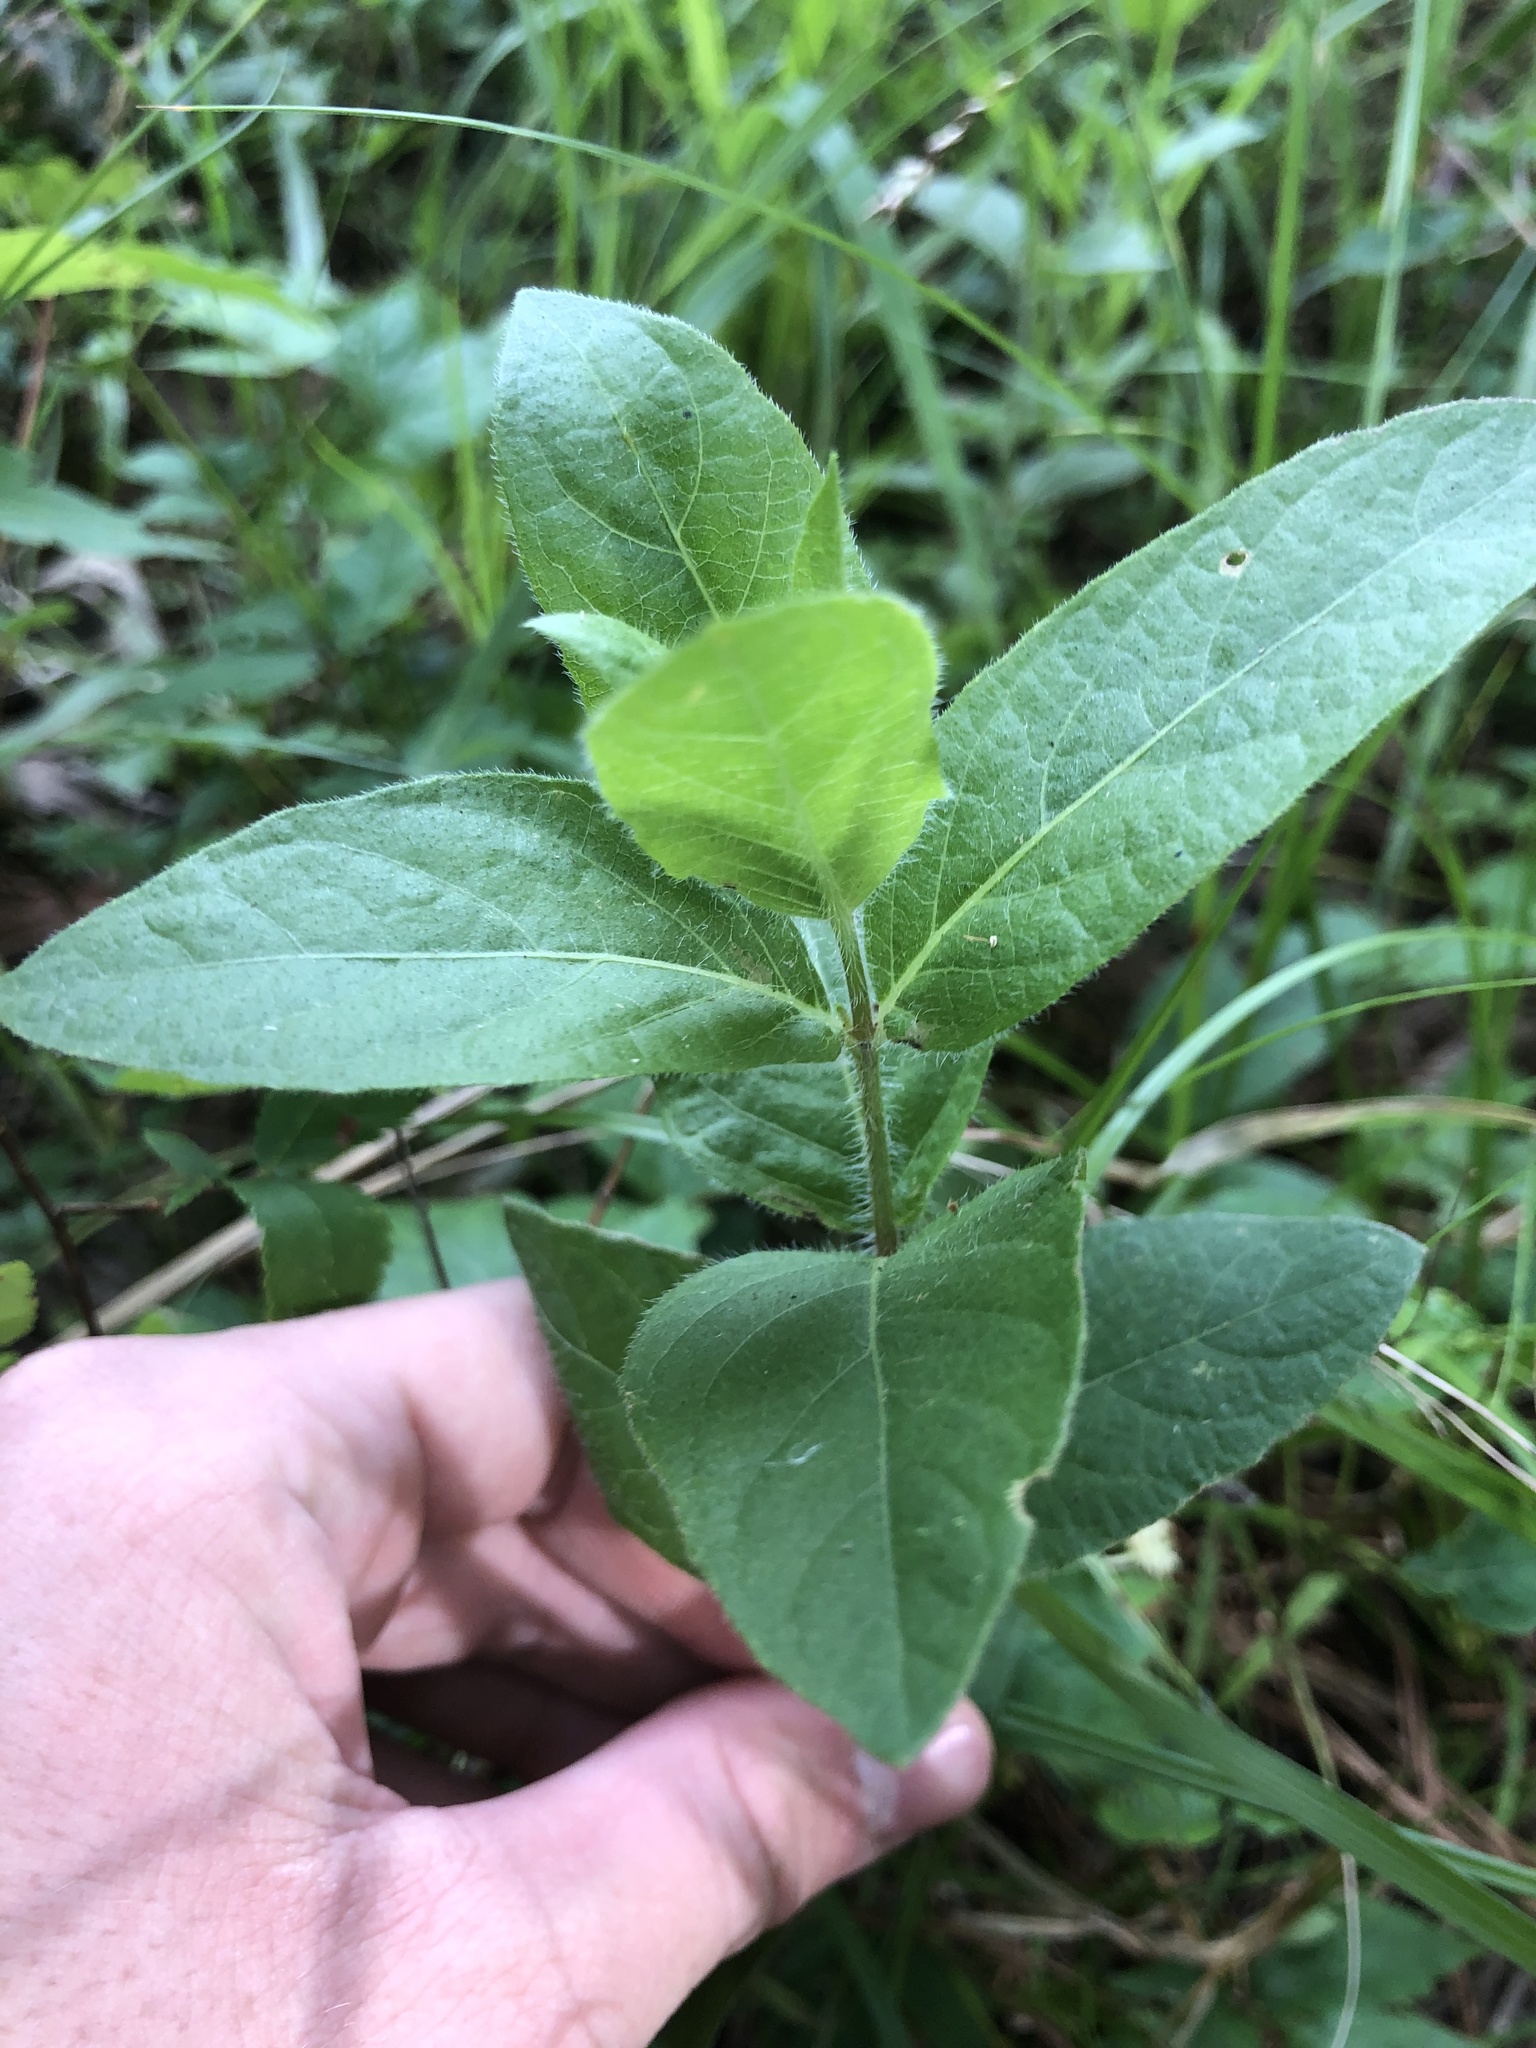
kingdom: Plantae
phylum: Tracheophyta
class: Magnoliopsida
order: Lamiales
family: Acanthaceae
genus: Ruellia
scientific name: Ruellia humilis
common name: Fringe-leaf ruellia
